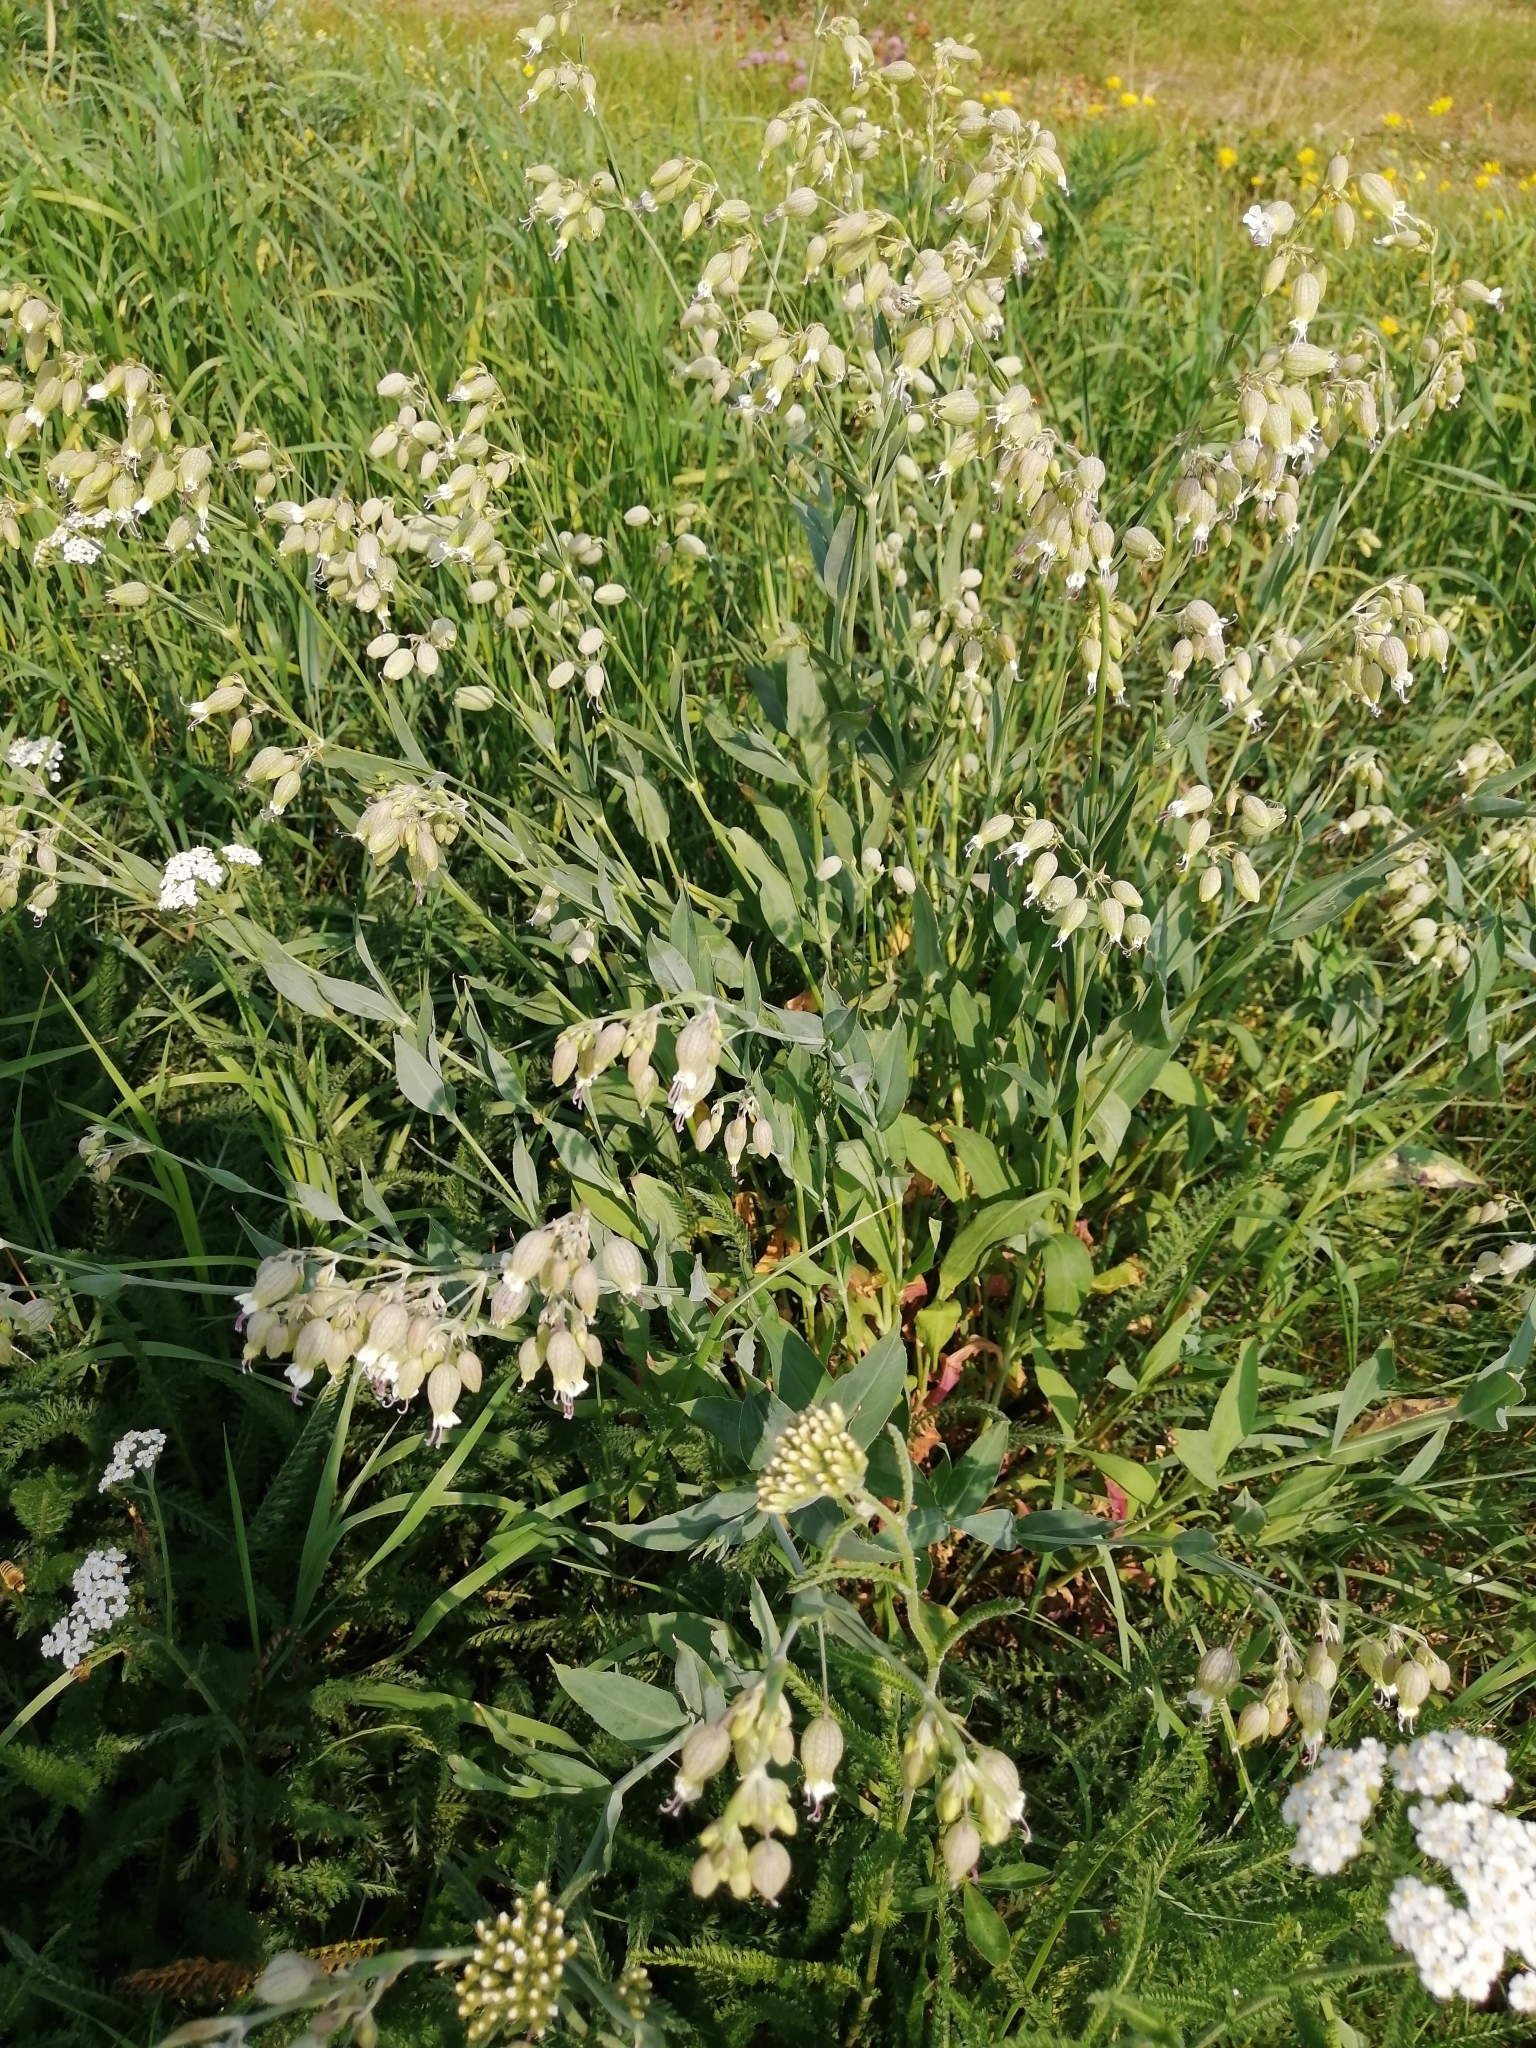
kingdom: Plantae
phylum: Tracheophyta
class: Magnoliopsida
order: Caryophyllales
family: Caryophyllaceae
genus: Silene
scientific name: Silene vulgaris
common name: Bladder campion
